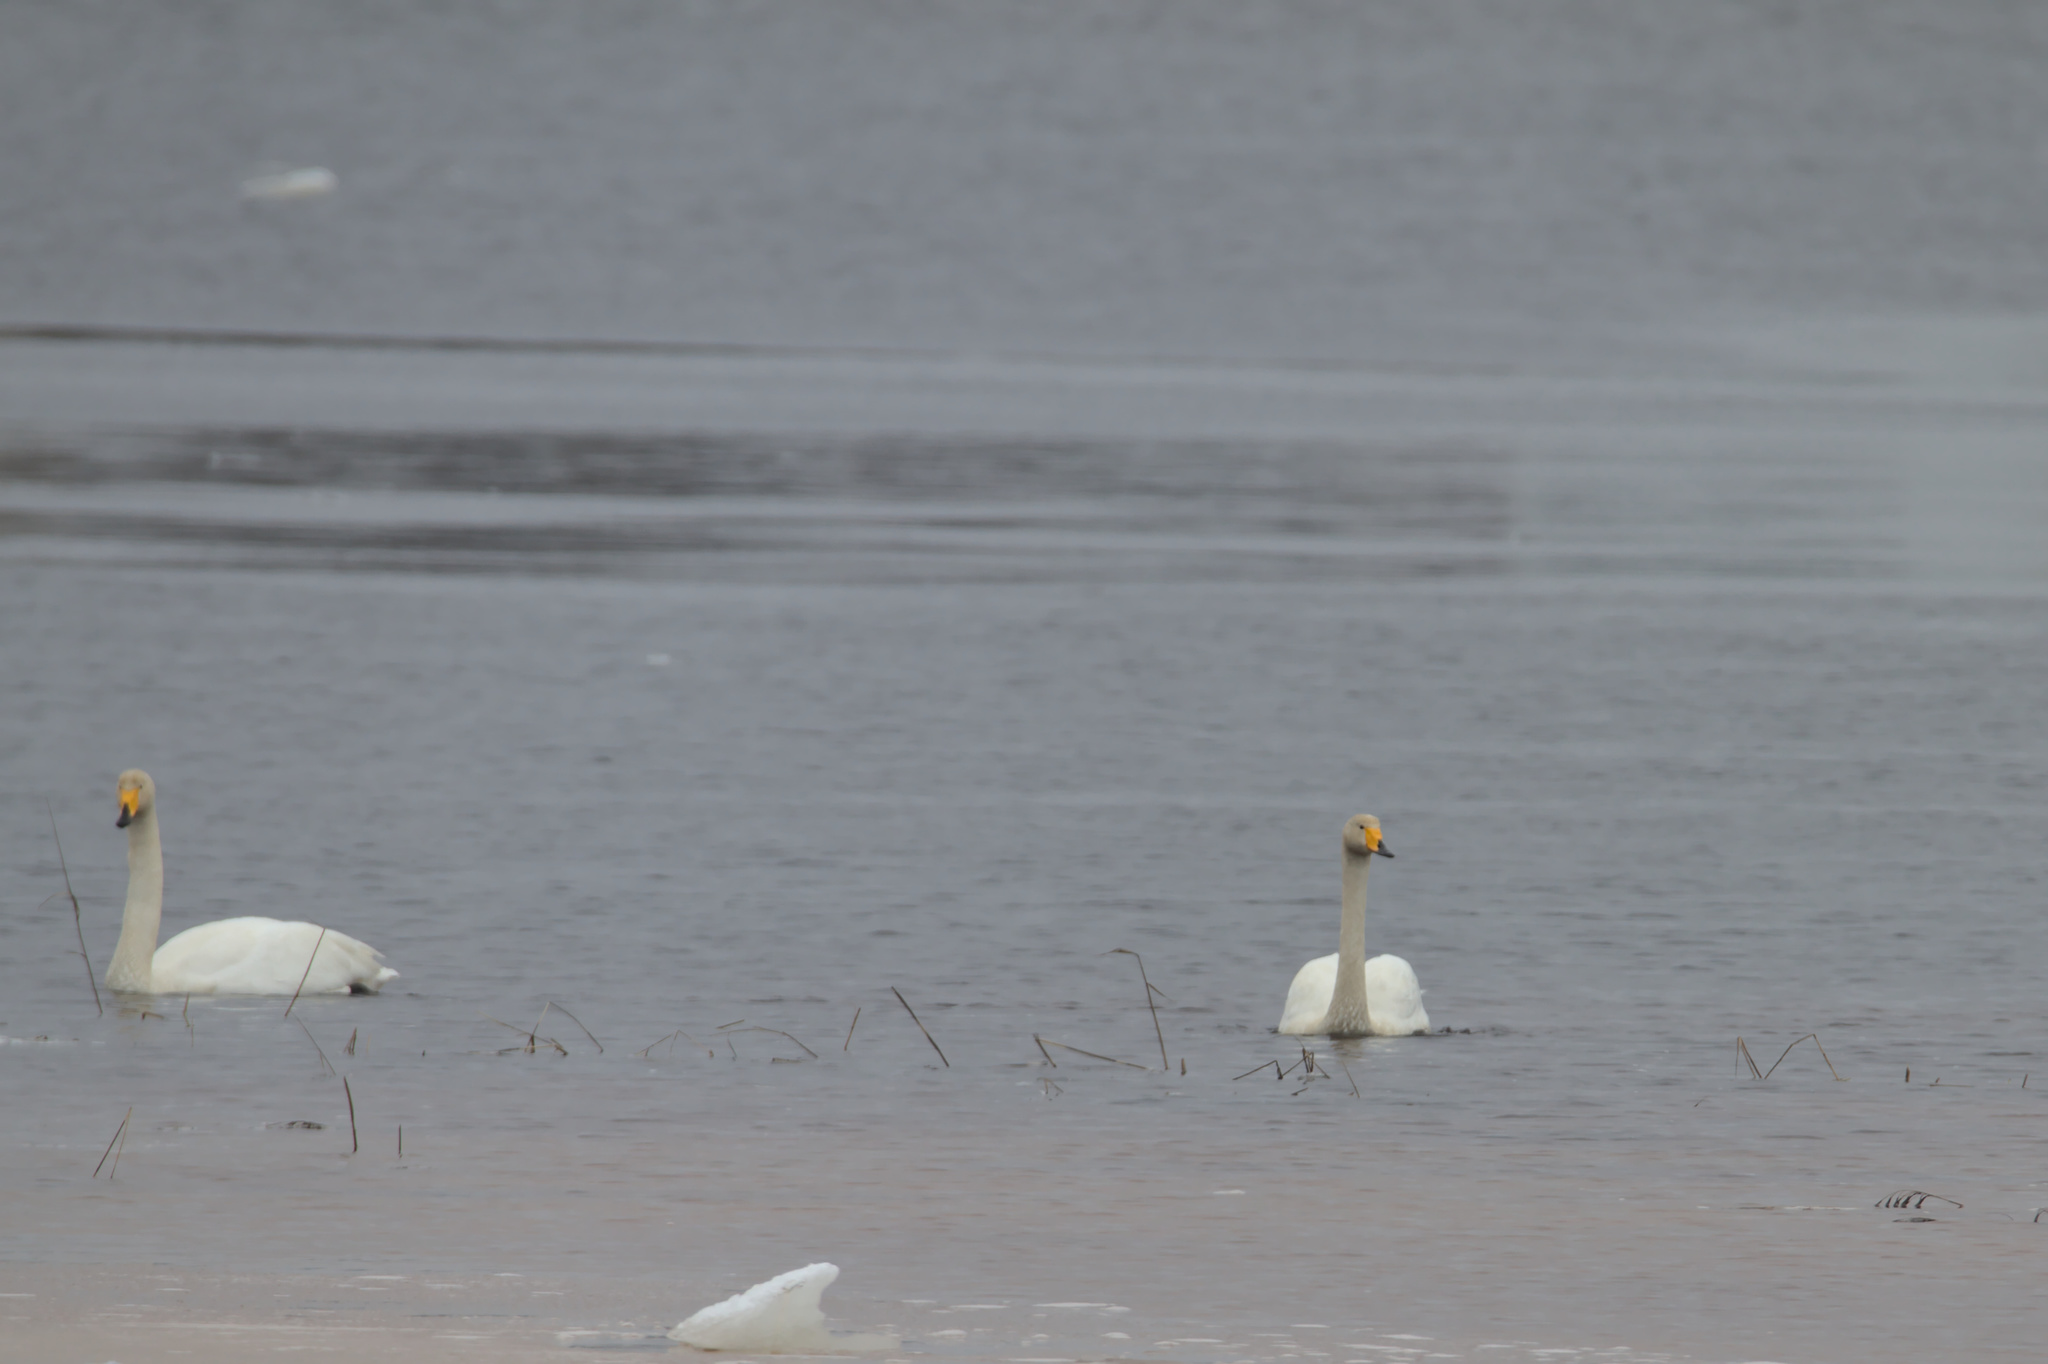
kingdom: Animalia
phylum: Chordata
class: Aves
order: Anseriformes
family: Anatidae
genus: Cygnus
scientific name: Cygnus cygnus
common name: Whooper swan
